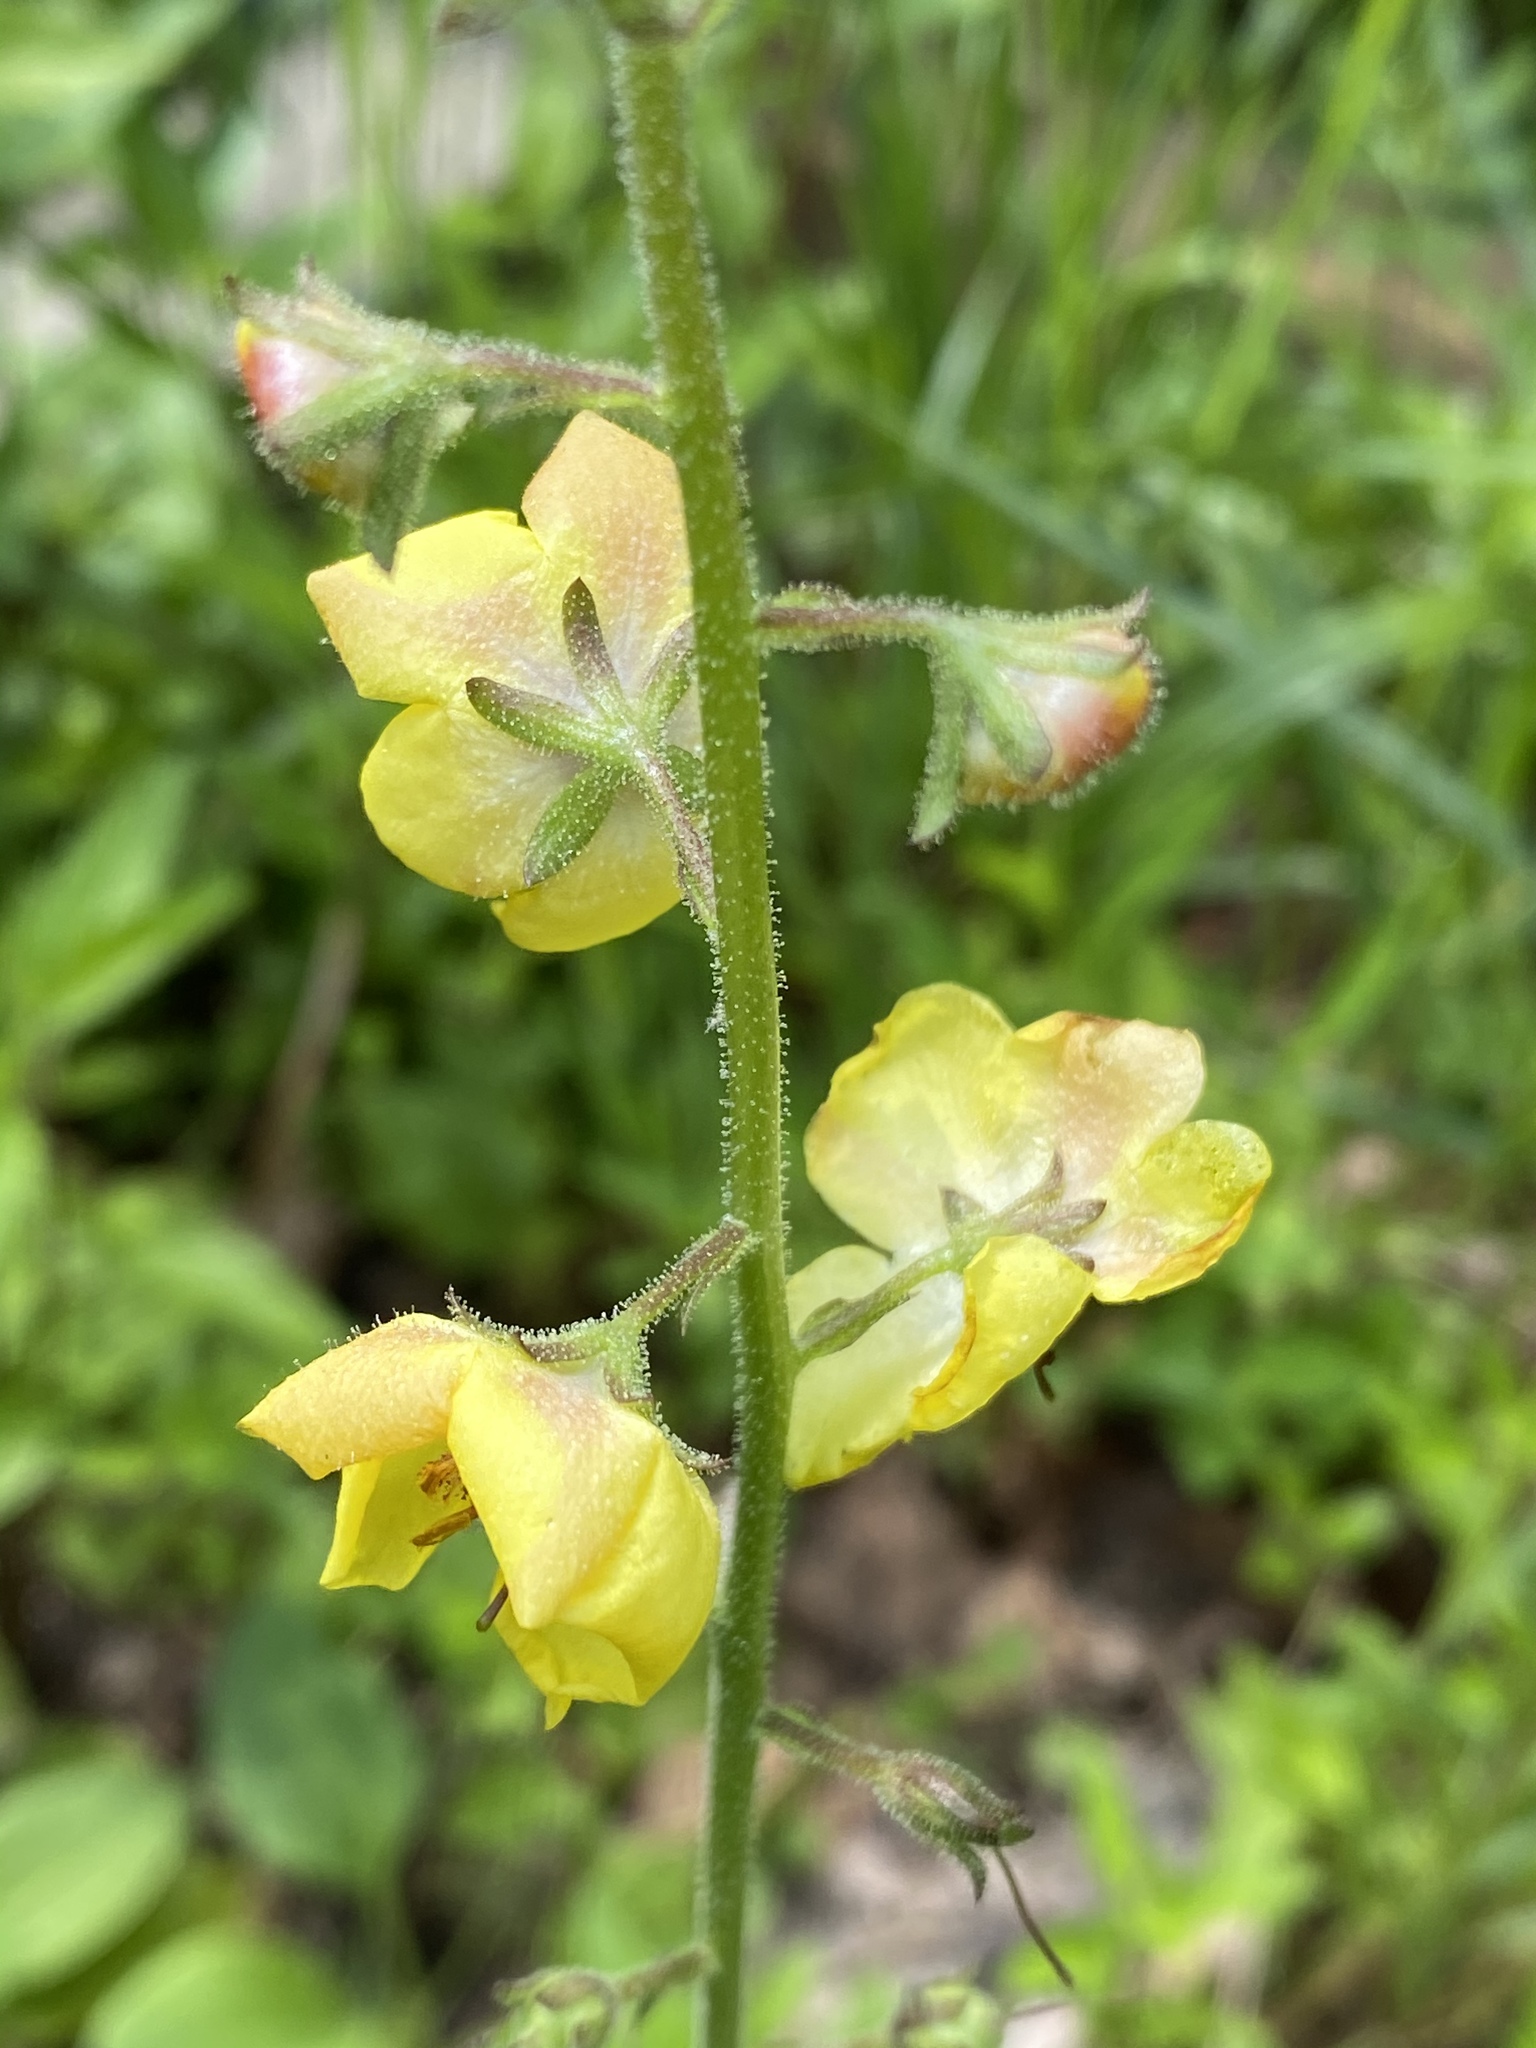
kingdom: Plantae
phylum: Tracheophyta
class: Magnoliopsida
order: Lamiales
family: Scrophulariaceae
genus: Verbascum
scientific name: Verbascum blattaria
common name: Moth mullein
